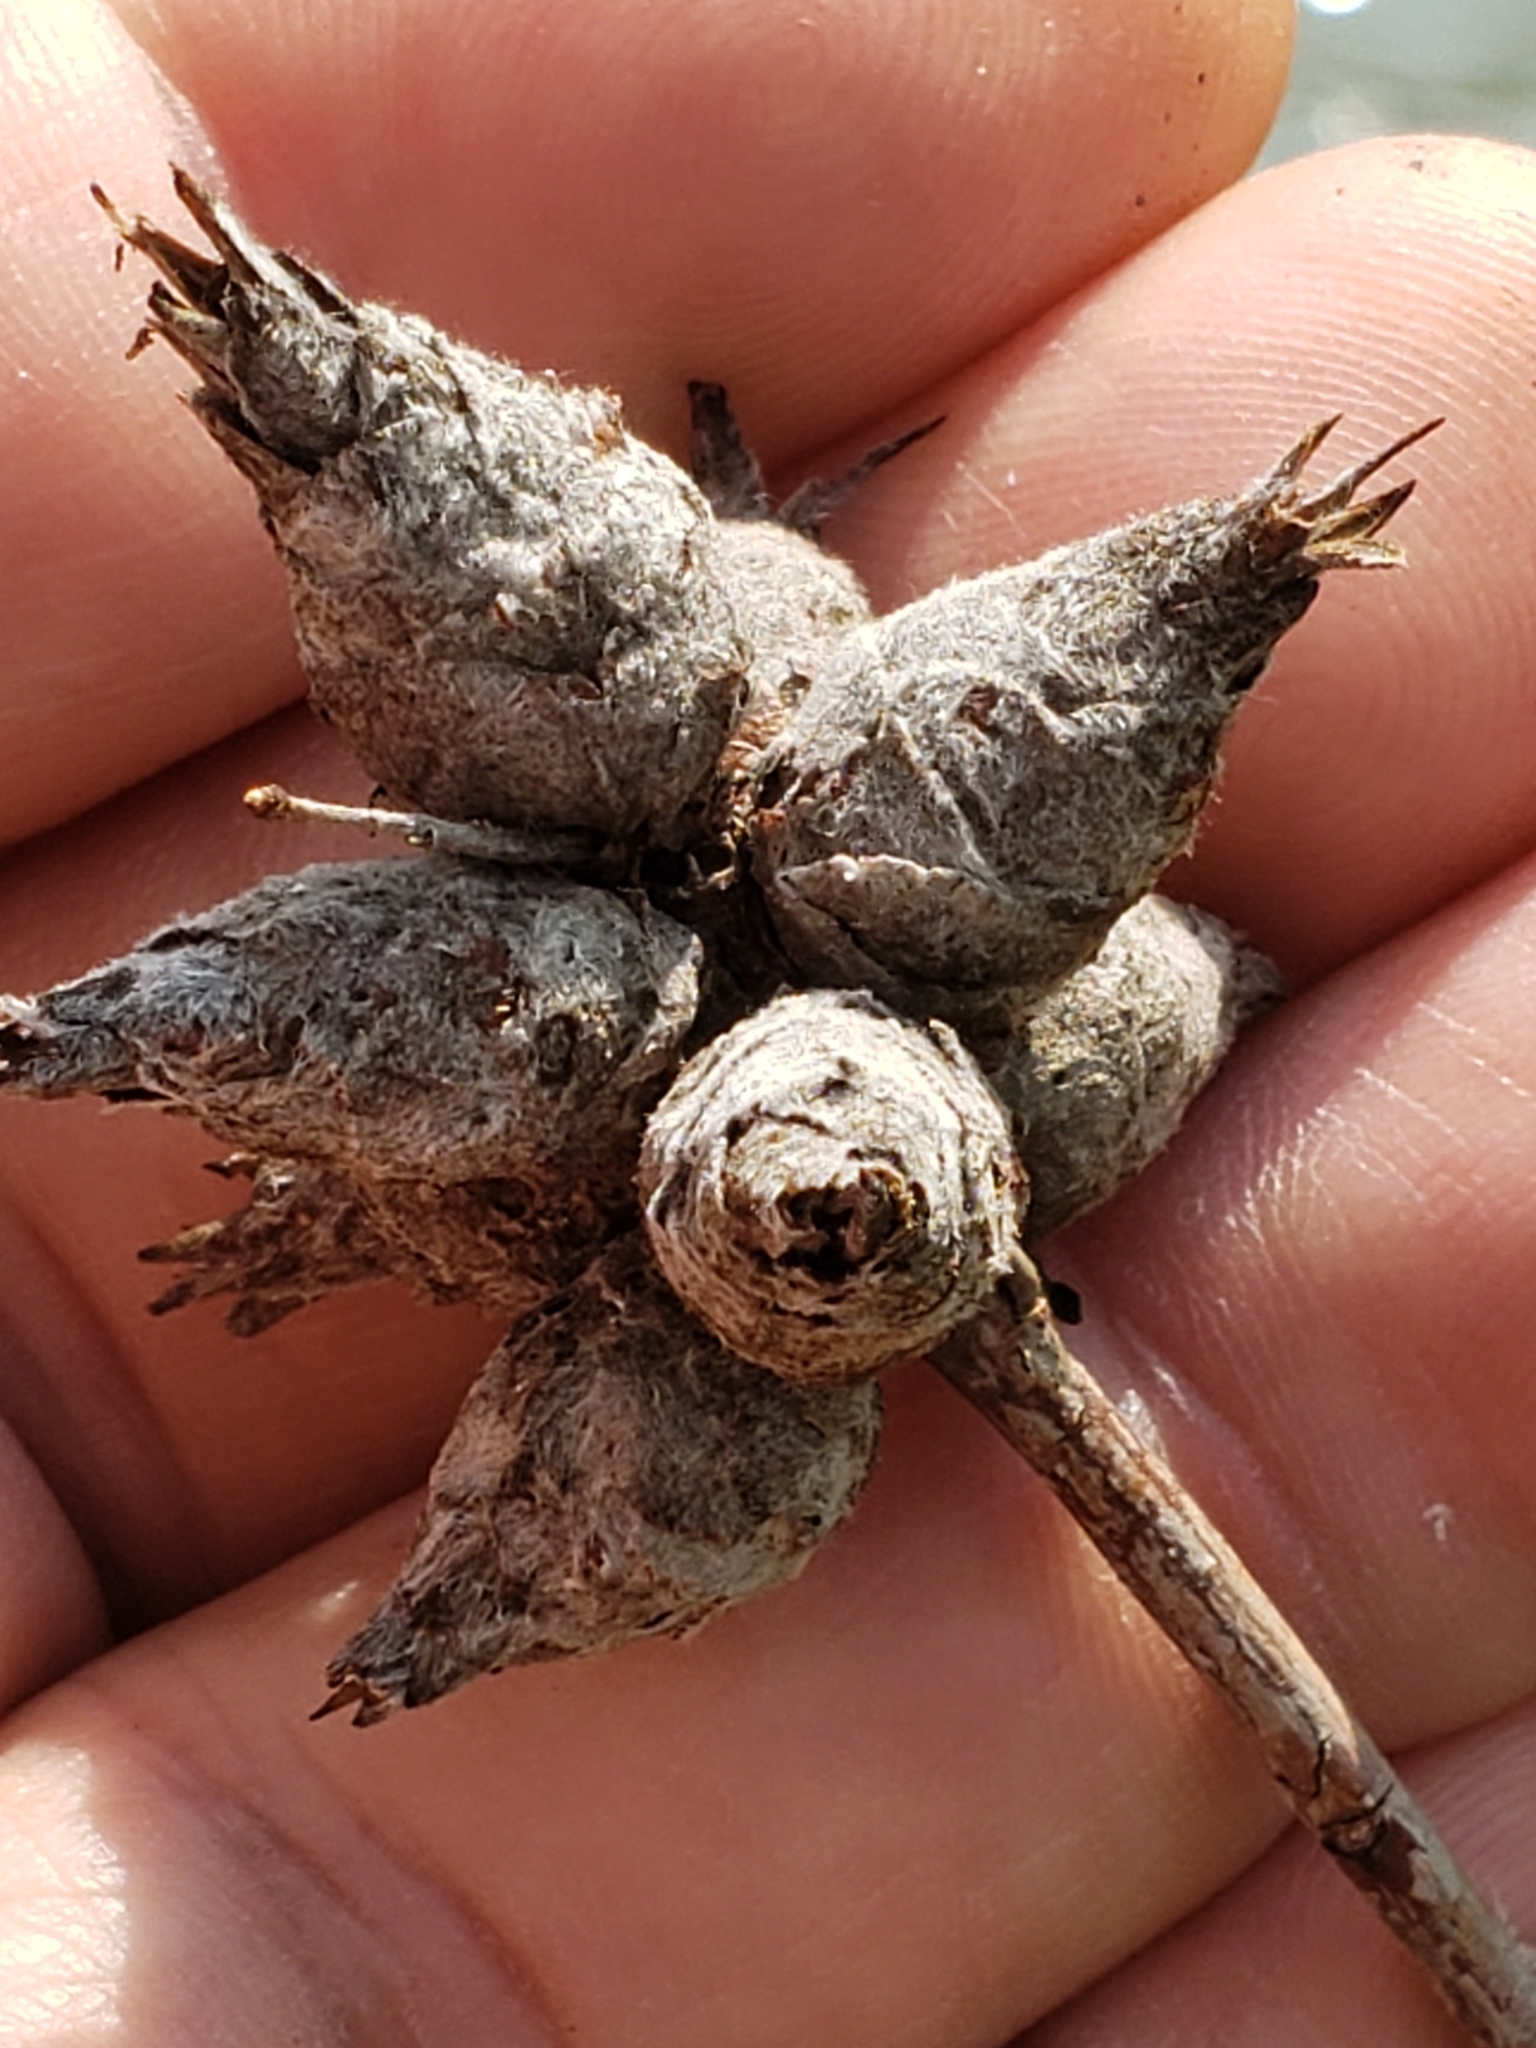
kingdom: Animalia
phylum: Arthropoda
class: Insecta
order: Diptera
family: Cecidomyiidae
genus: Rabdophaga
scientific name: Rabdophaga strobiloides
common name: Willow pinecone gall midge
